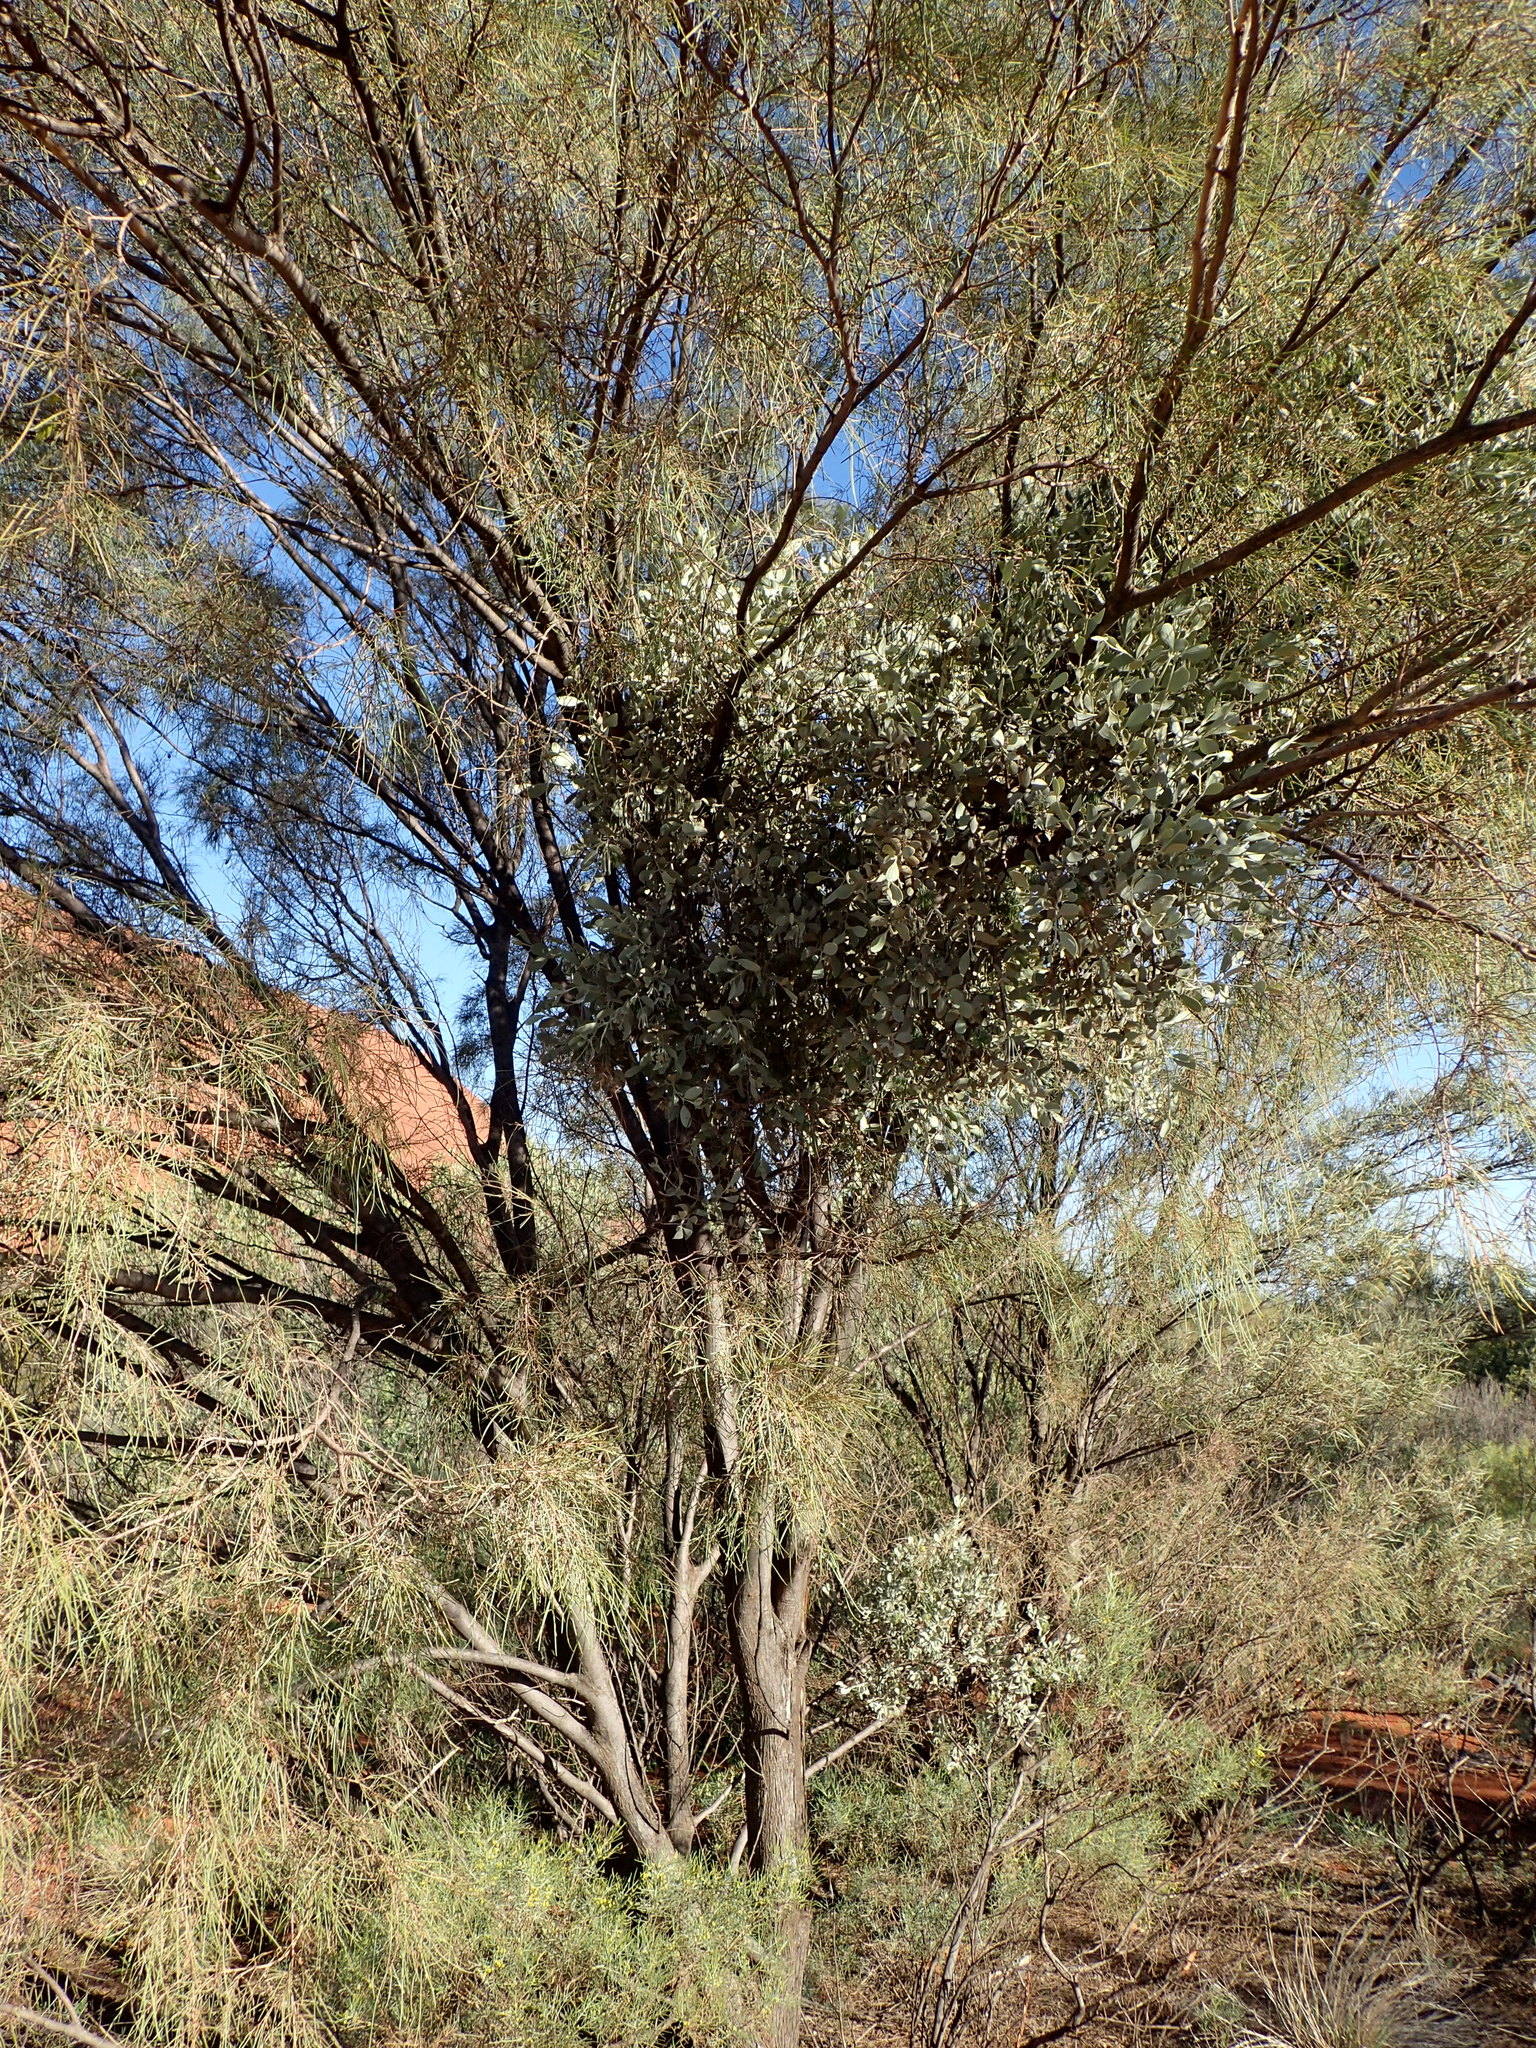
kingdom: Plantae
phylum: Tracheophyta
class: Magnoliopsida
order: Santalales
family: Loranthaceae
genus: Amyema
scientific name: Amyema maidenii
